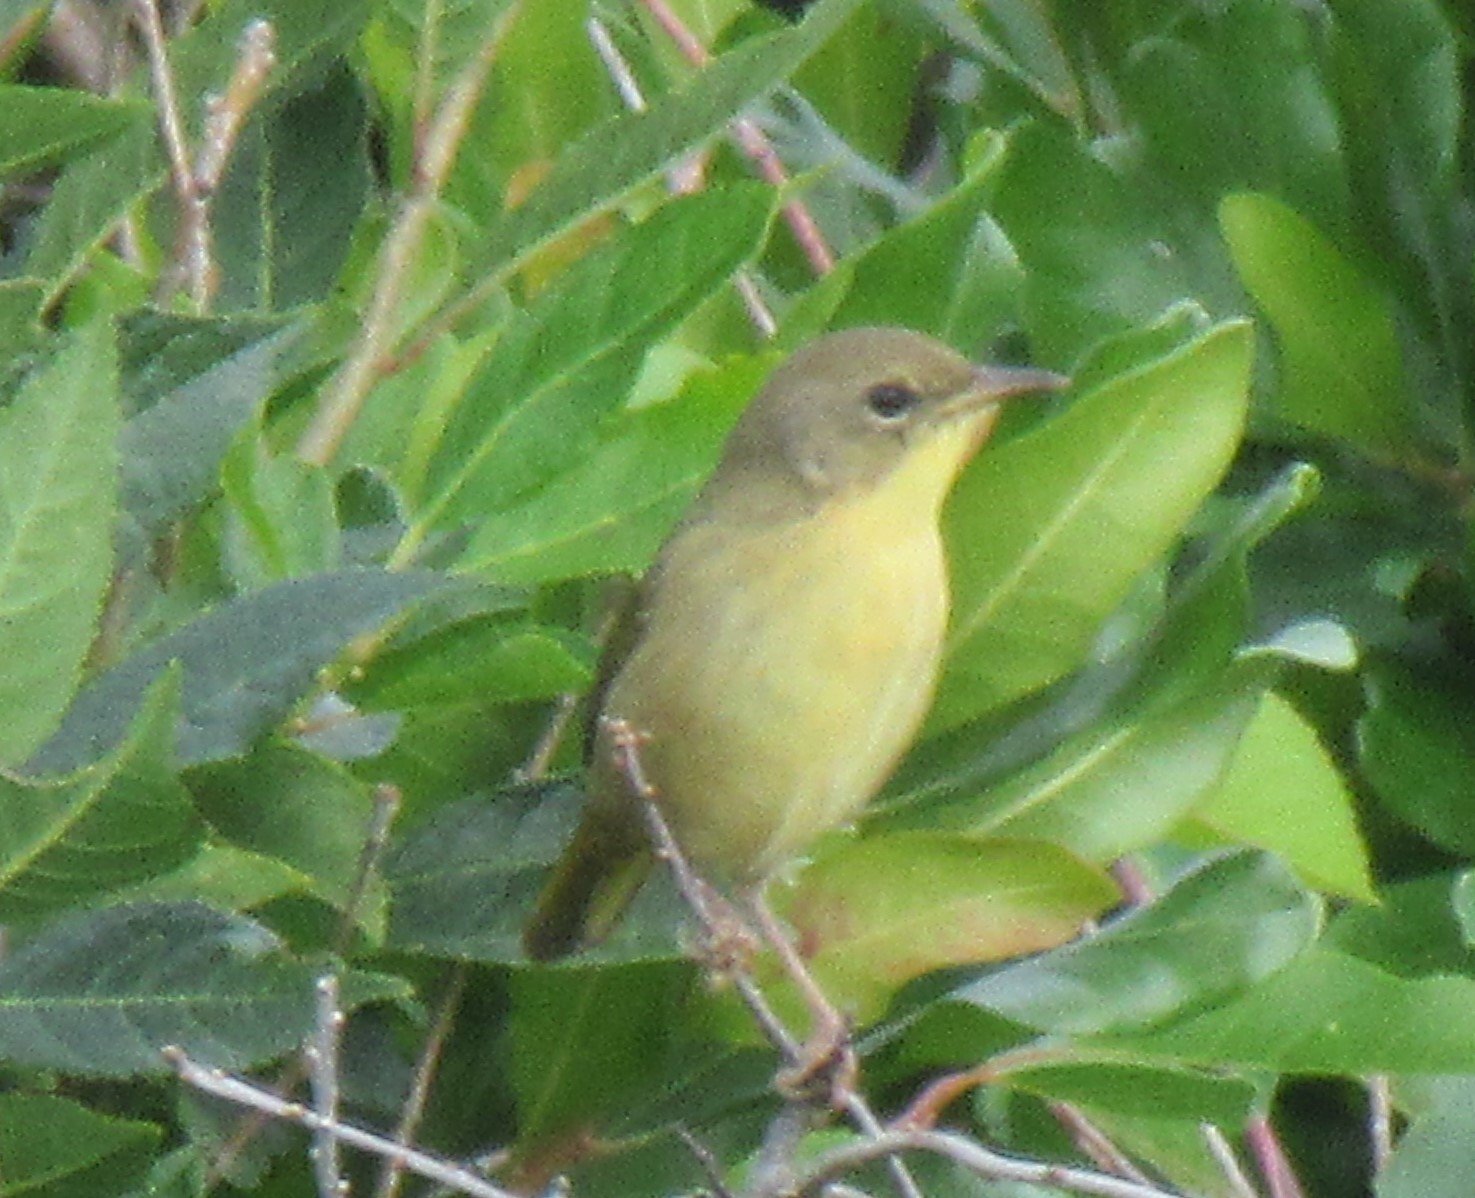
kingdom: Animalia
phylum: Chordata
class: Aves
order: Passeriformes
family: Parulidae
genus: Geothlypis
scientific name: Geothlypis trichas
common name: Common yellowthroat
